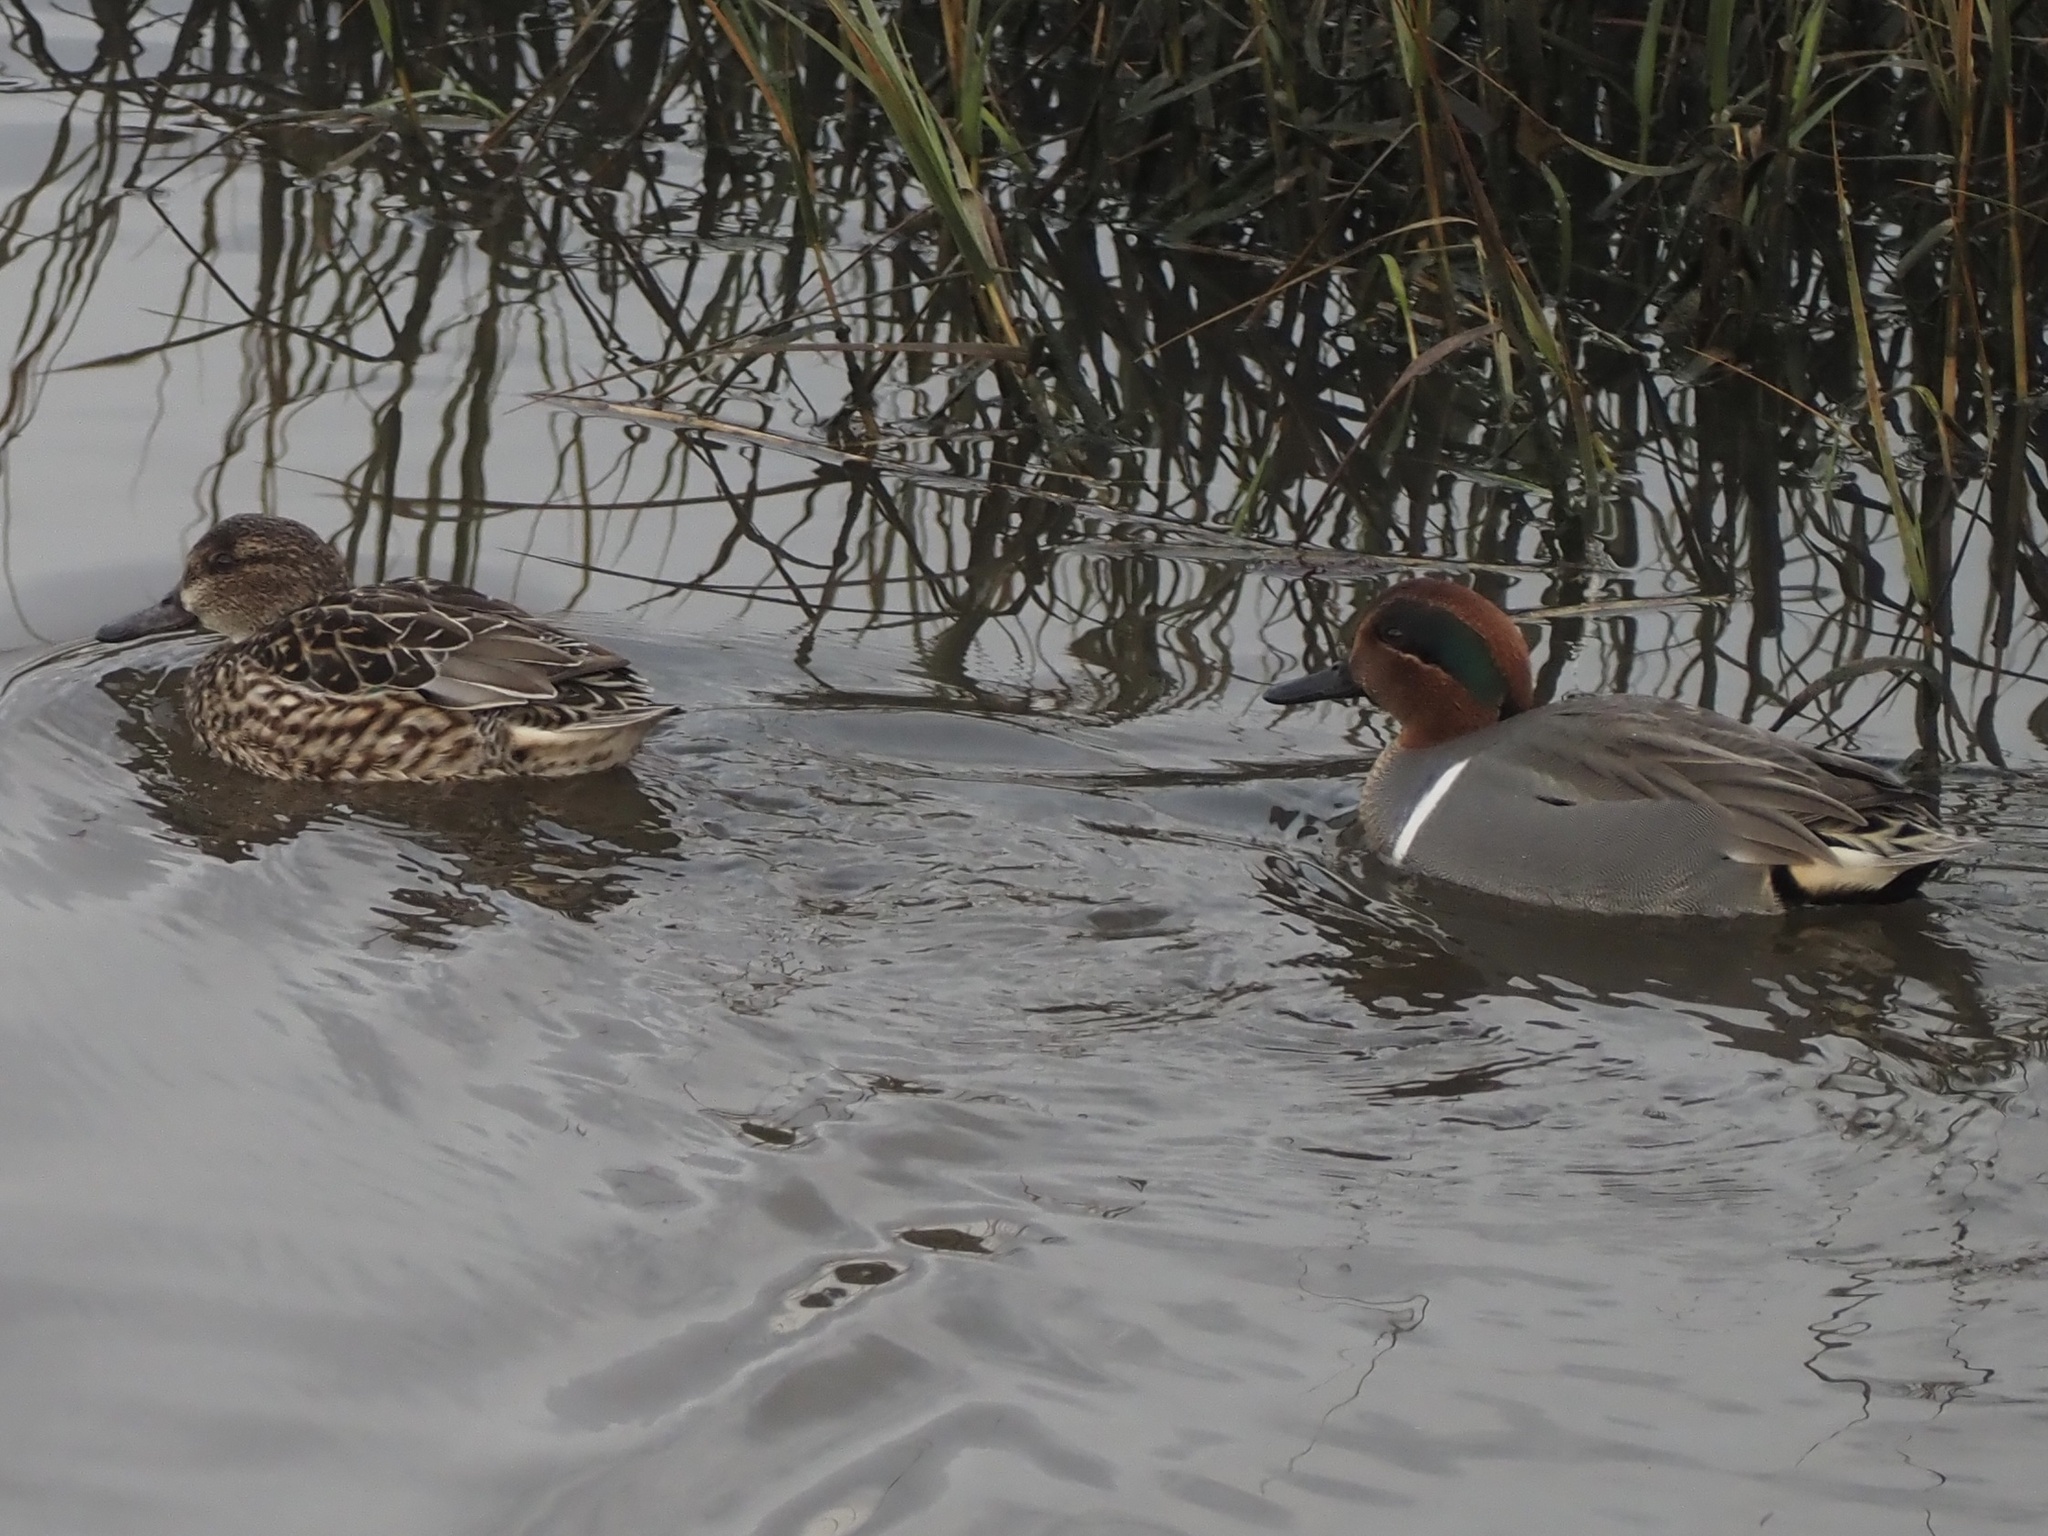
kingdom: Animalia
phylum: Chordata
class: Aves
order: Anseriformes
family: Anatidae
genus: Anas
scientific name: Anas crecca
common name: Eurasian teal
